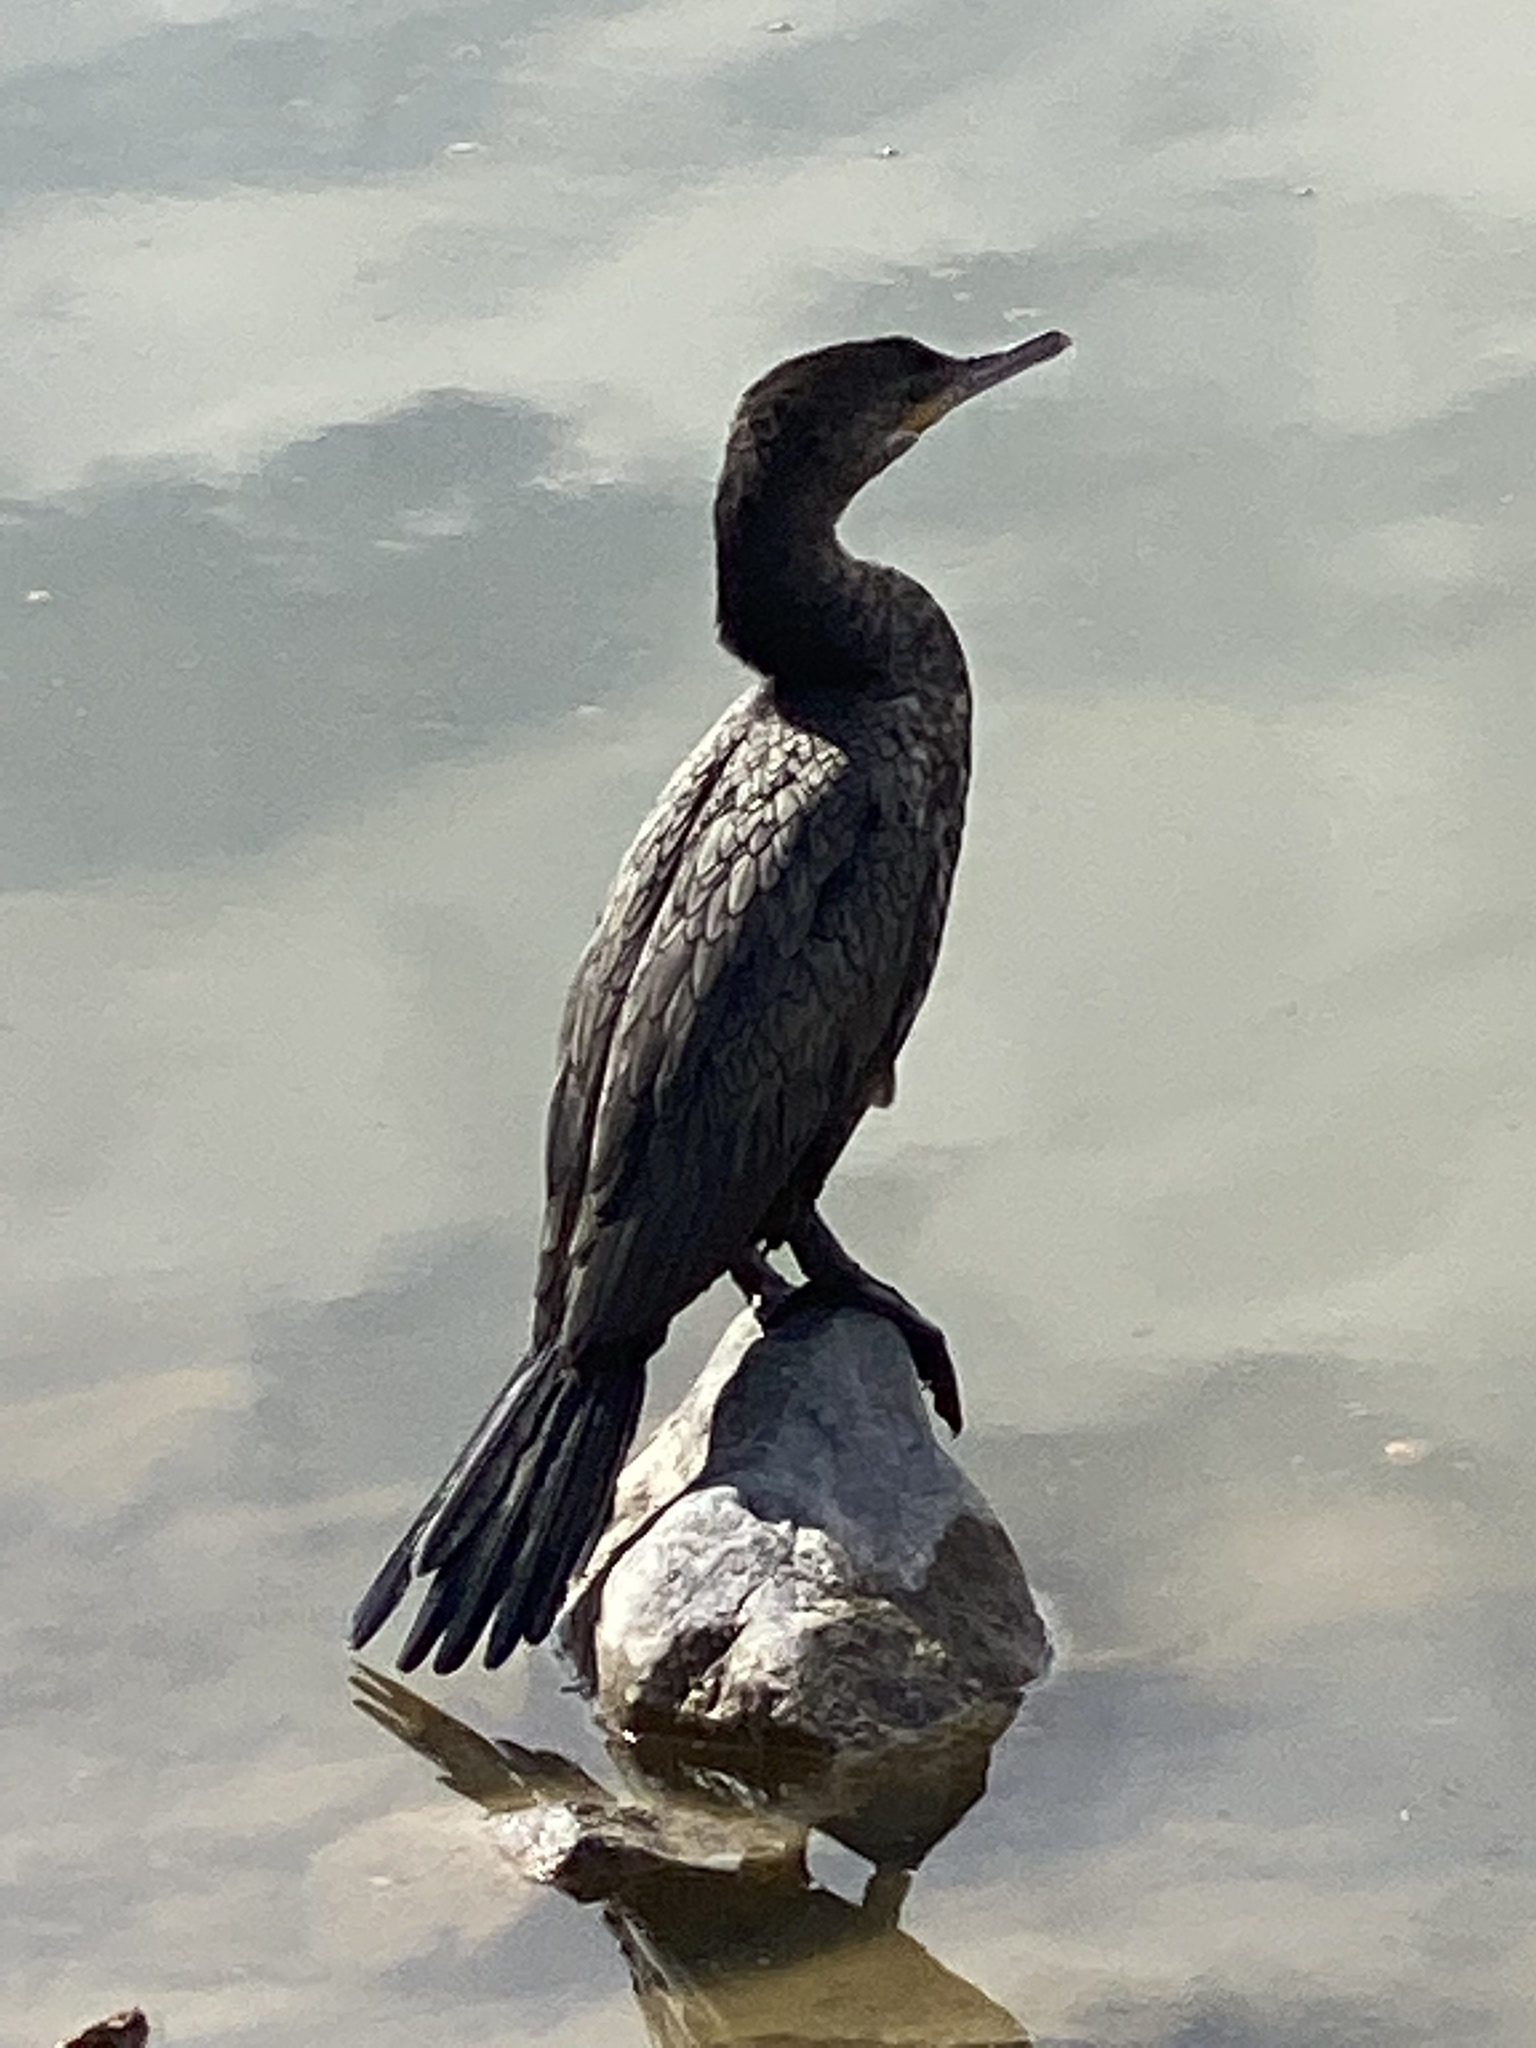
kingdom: Animalia
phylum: Chordata
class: Aves
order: Suliformes
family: Phalacrocoracidae
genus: Phalacrocorax
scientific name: Phalacrocorax brasilianus
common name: Neotropic cormorant
